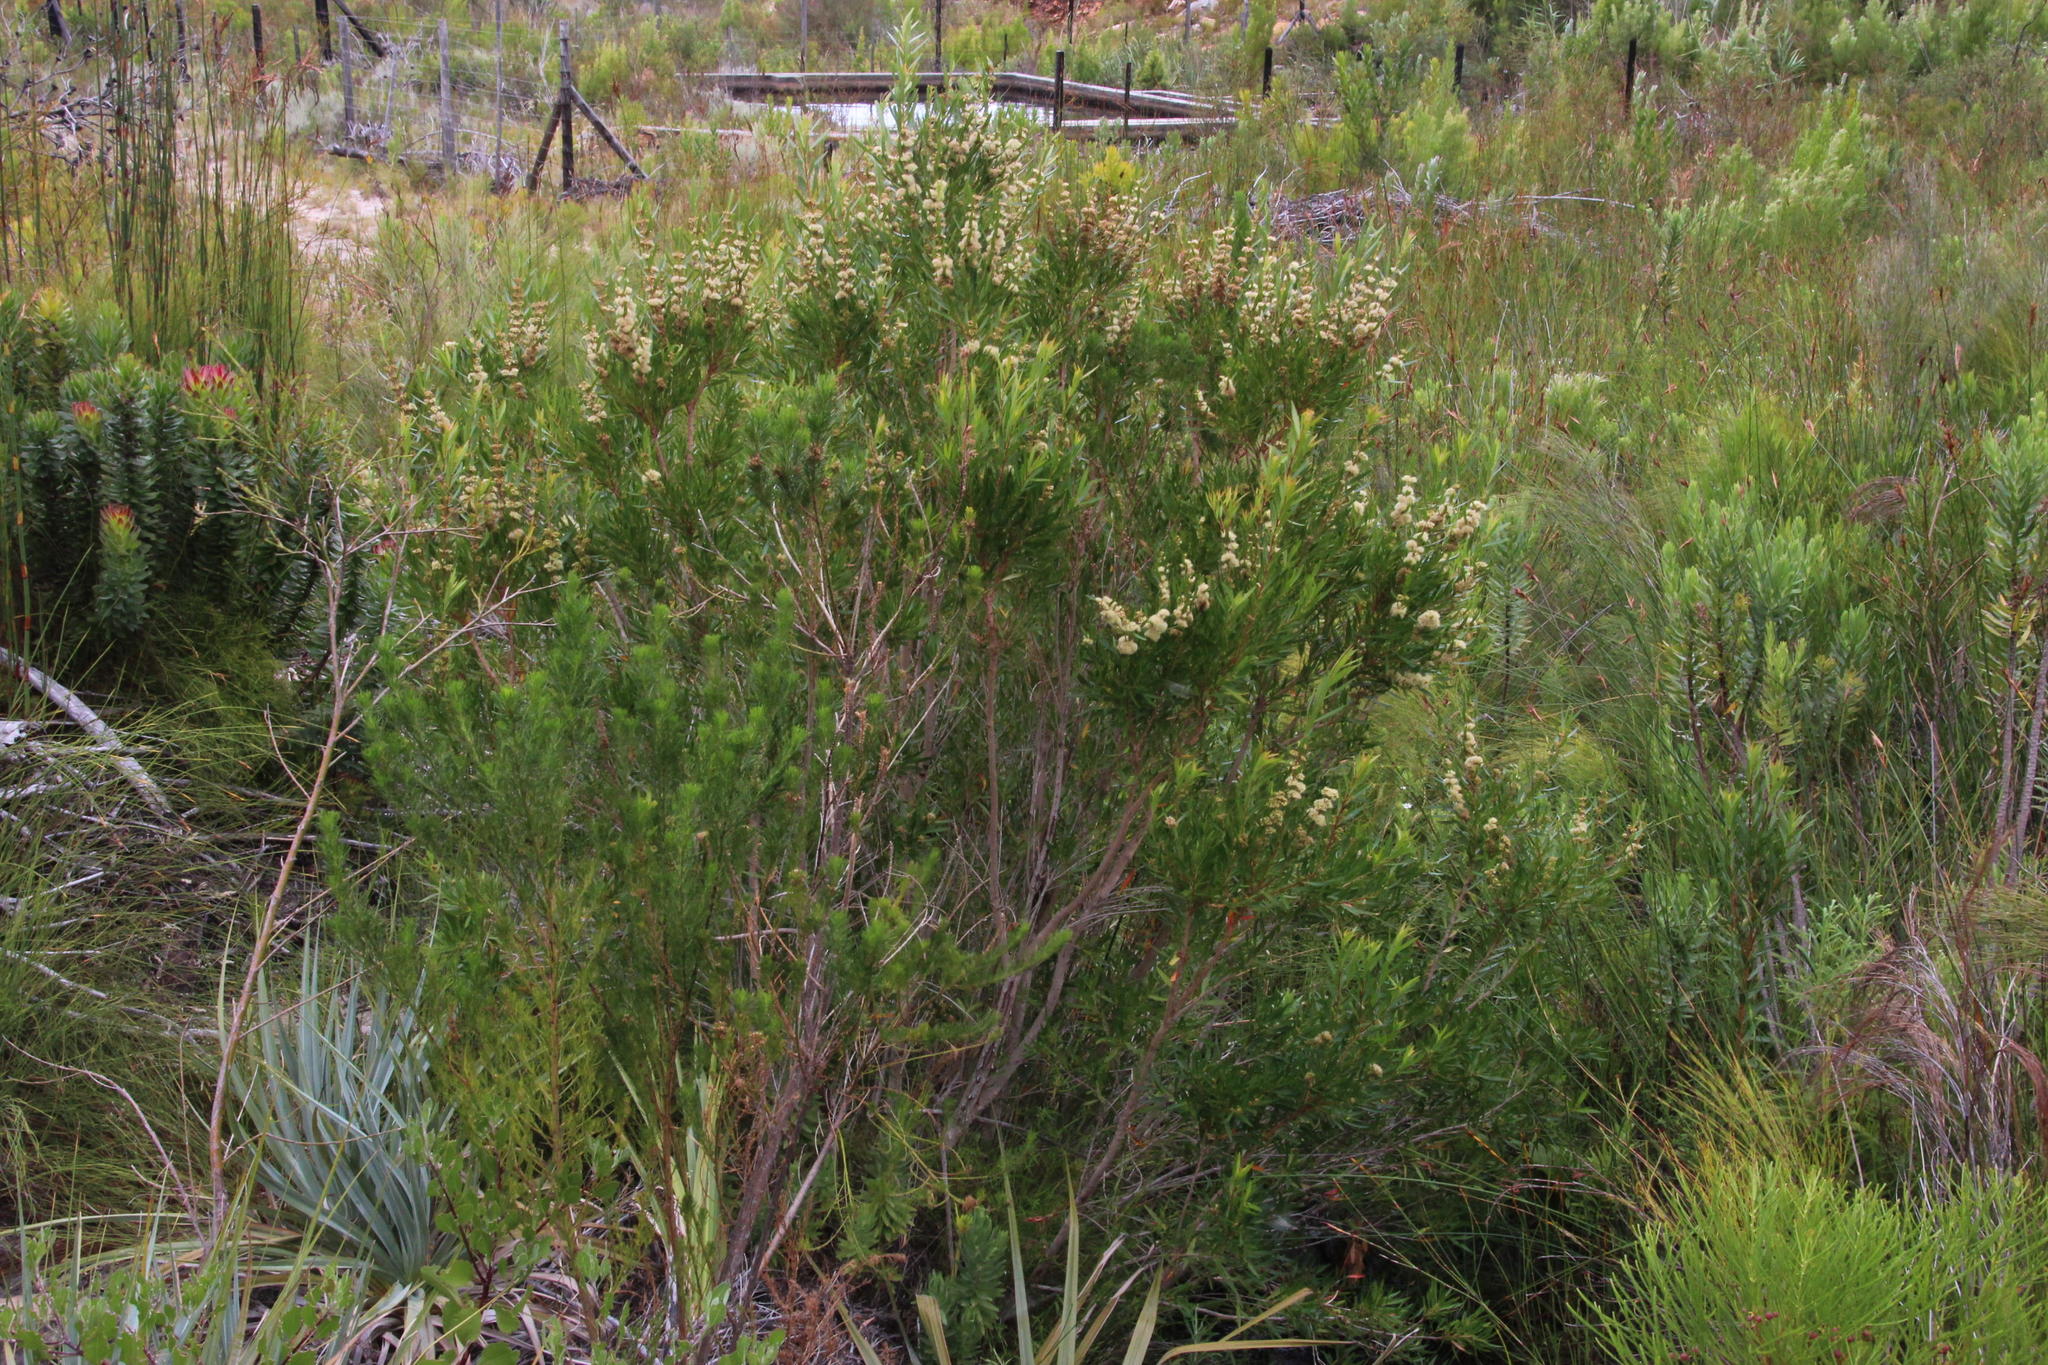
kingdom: Plantae
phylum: Tracheophyta
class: Magnoliopsida
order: Myrtales
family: Myrtaceae
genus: Callistemon
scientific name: Callistemon lanceolatus
